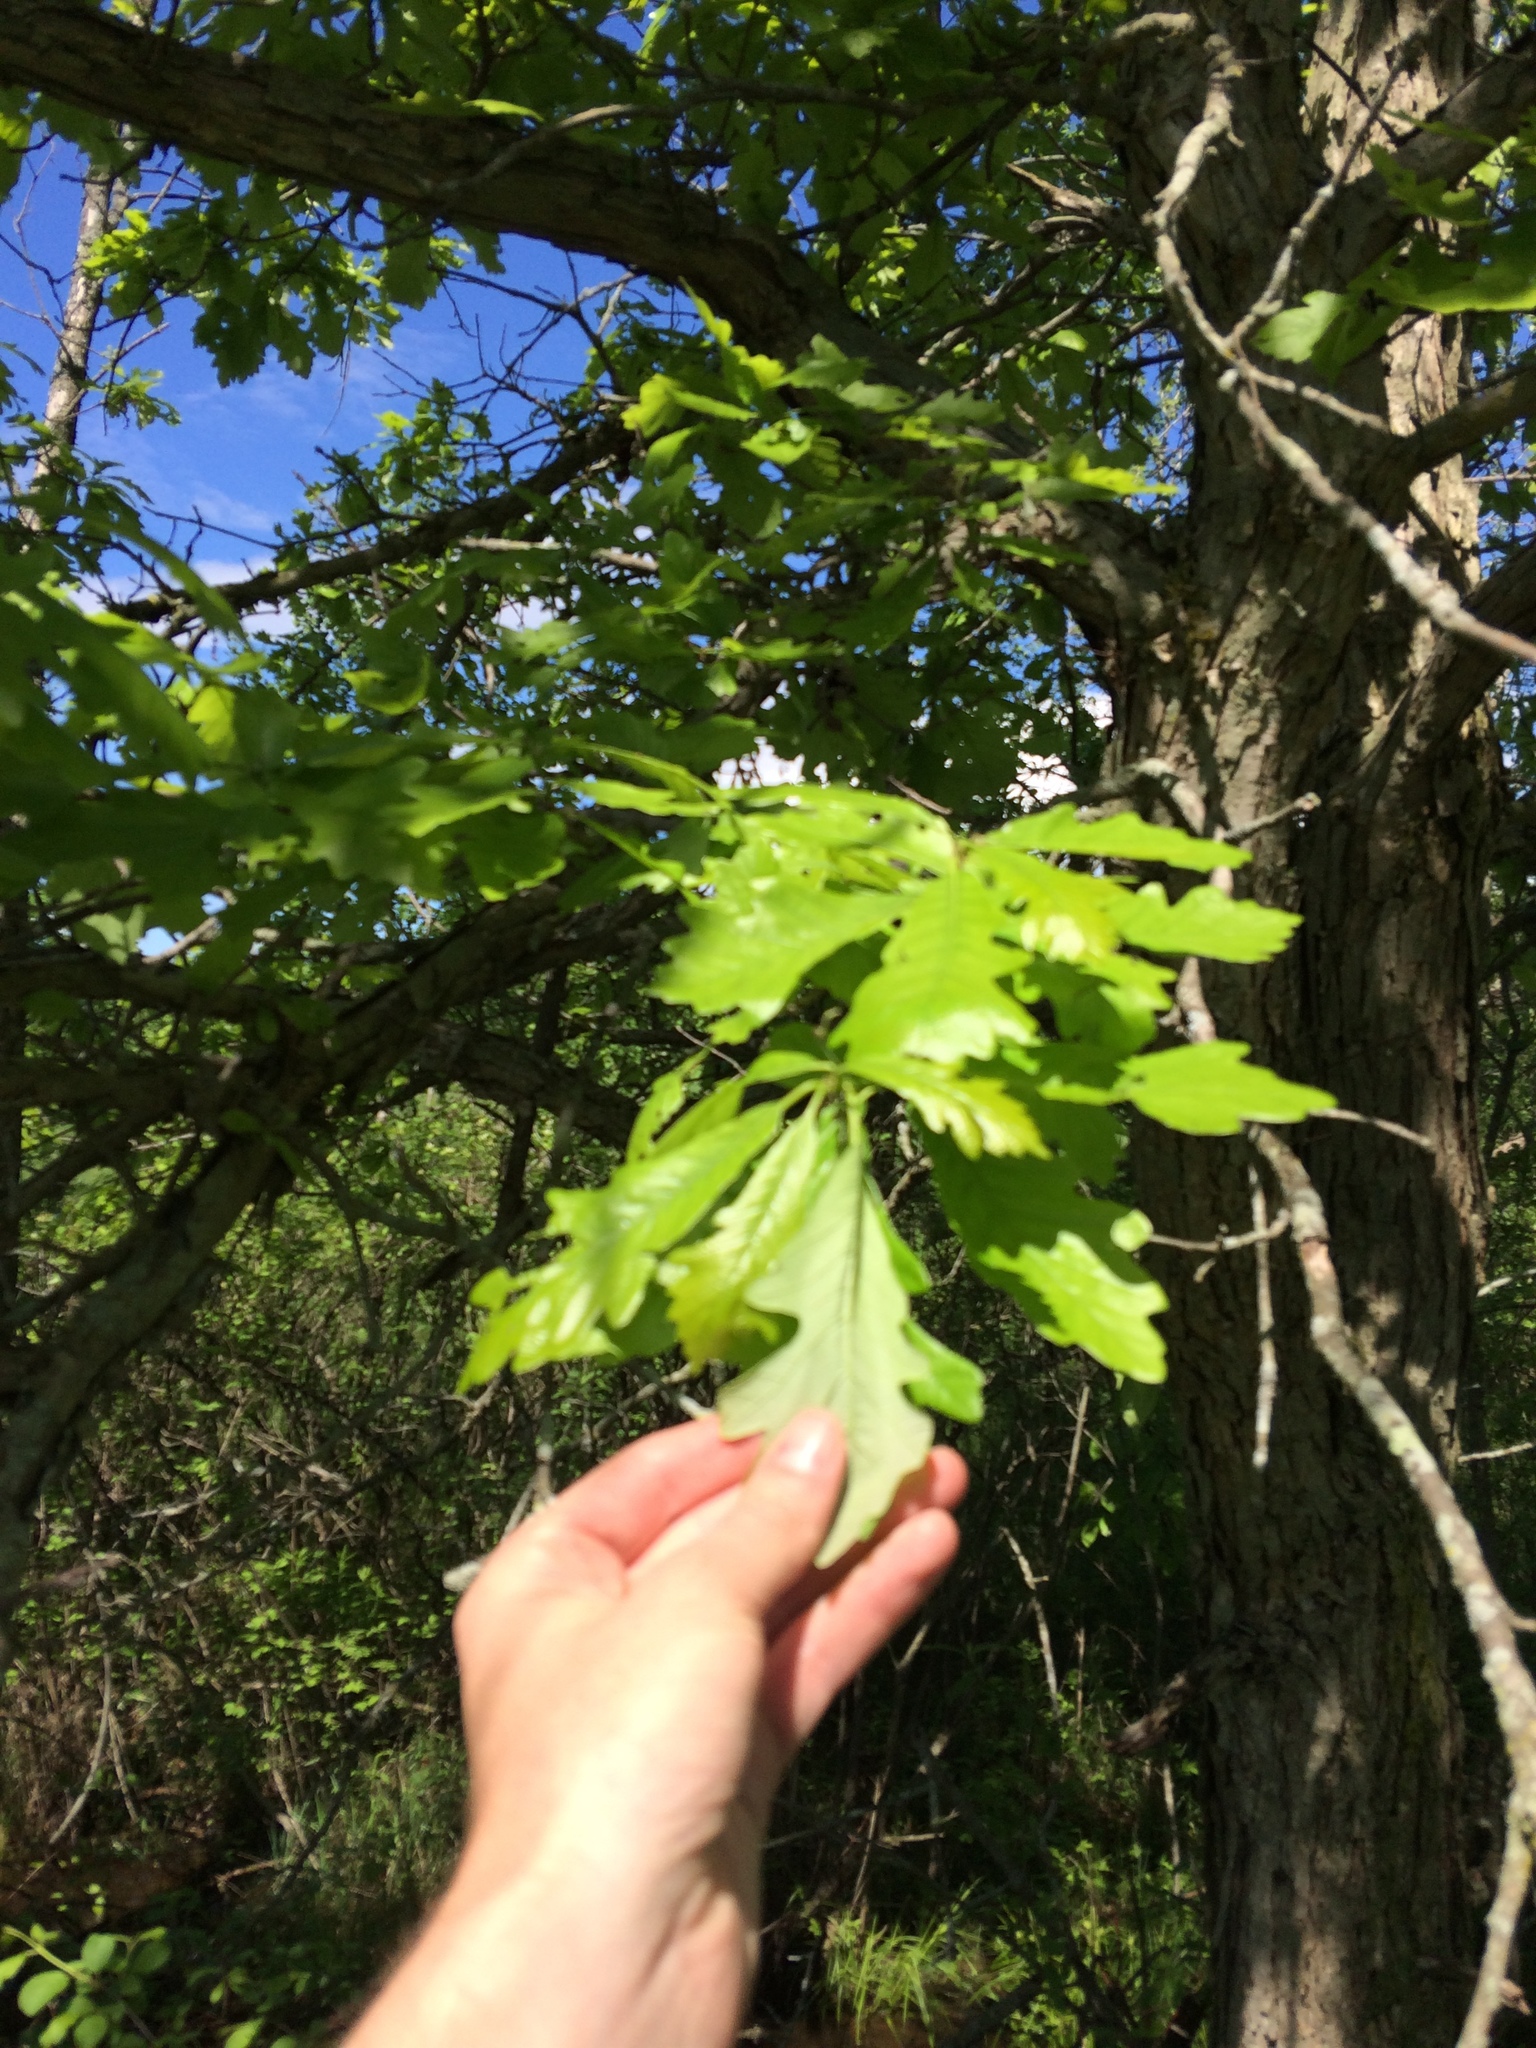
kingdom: Plantae
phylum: Tracheophyta
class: Magnoliopsida
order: Fagales
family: Fagaceae
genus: Quercus
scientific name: Quercus bicolor
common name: Swamp white oak
